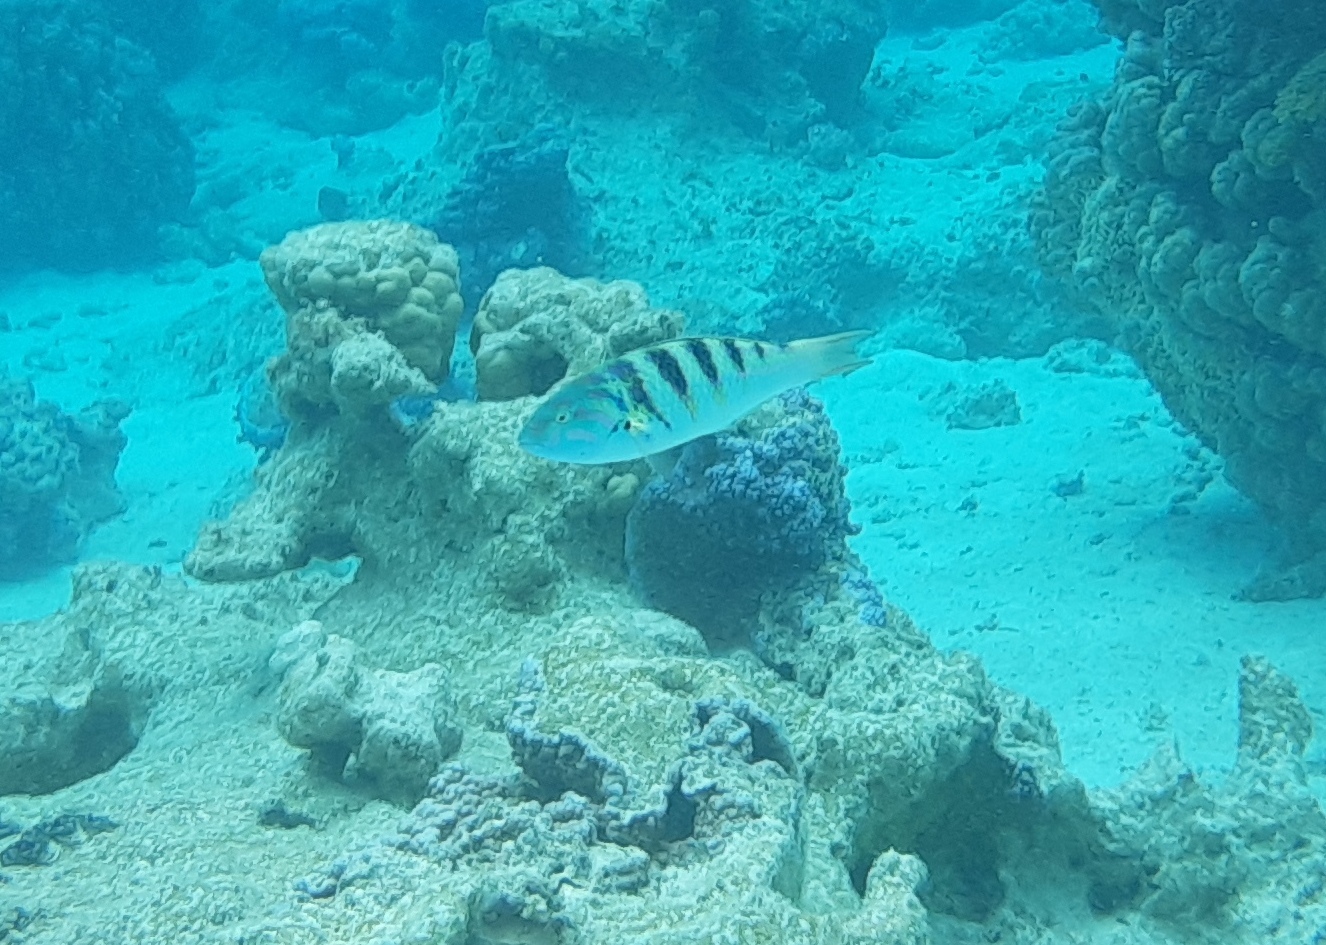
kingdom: Animalia
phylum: Chordata
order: Perciformes
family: Labridae
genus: Thalassoma
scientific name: Thalassoma hardwicke
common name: Sixbar wrasse
